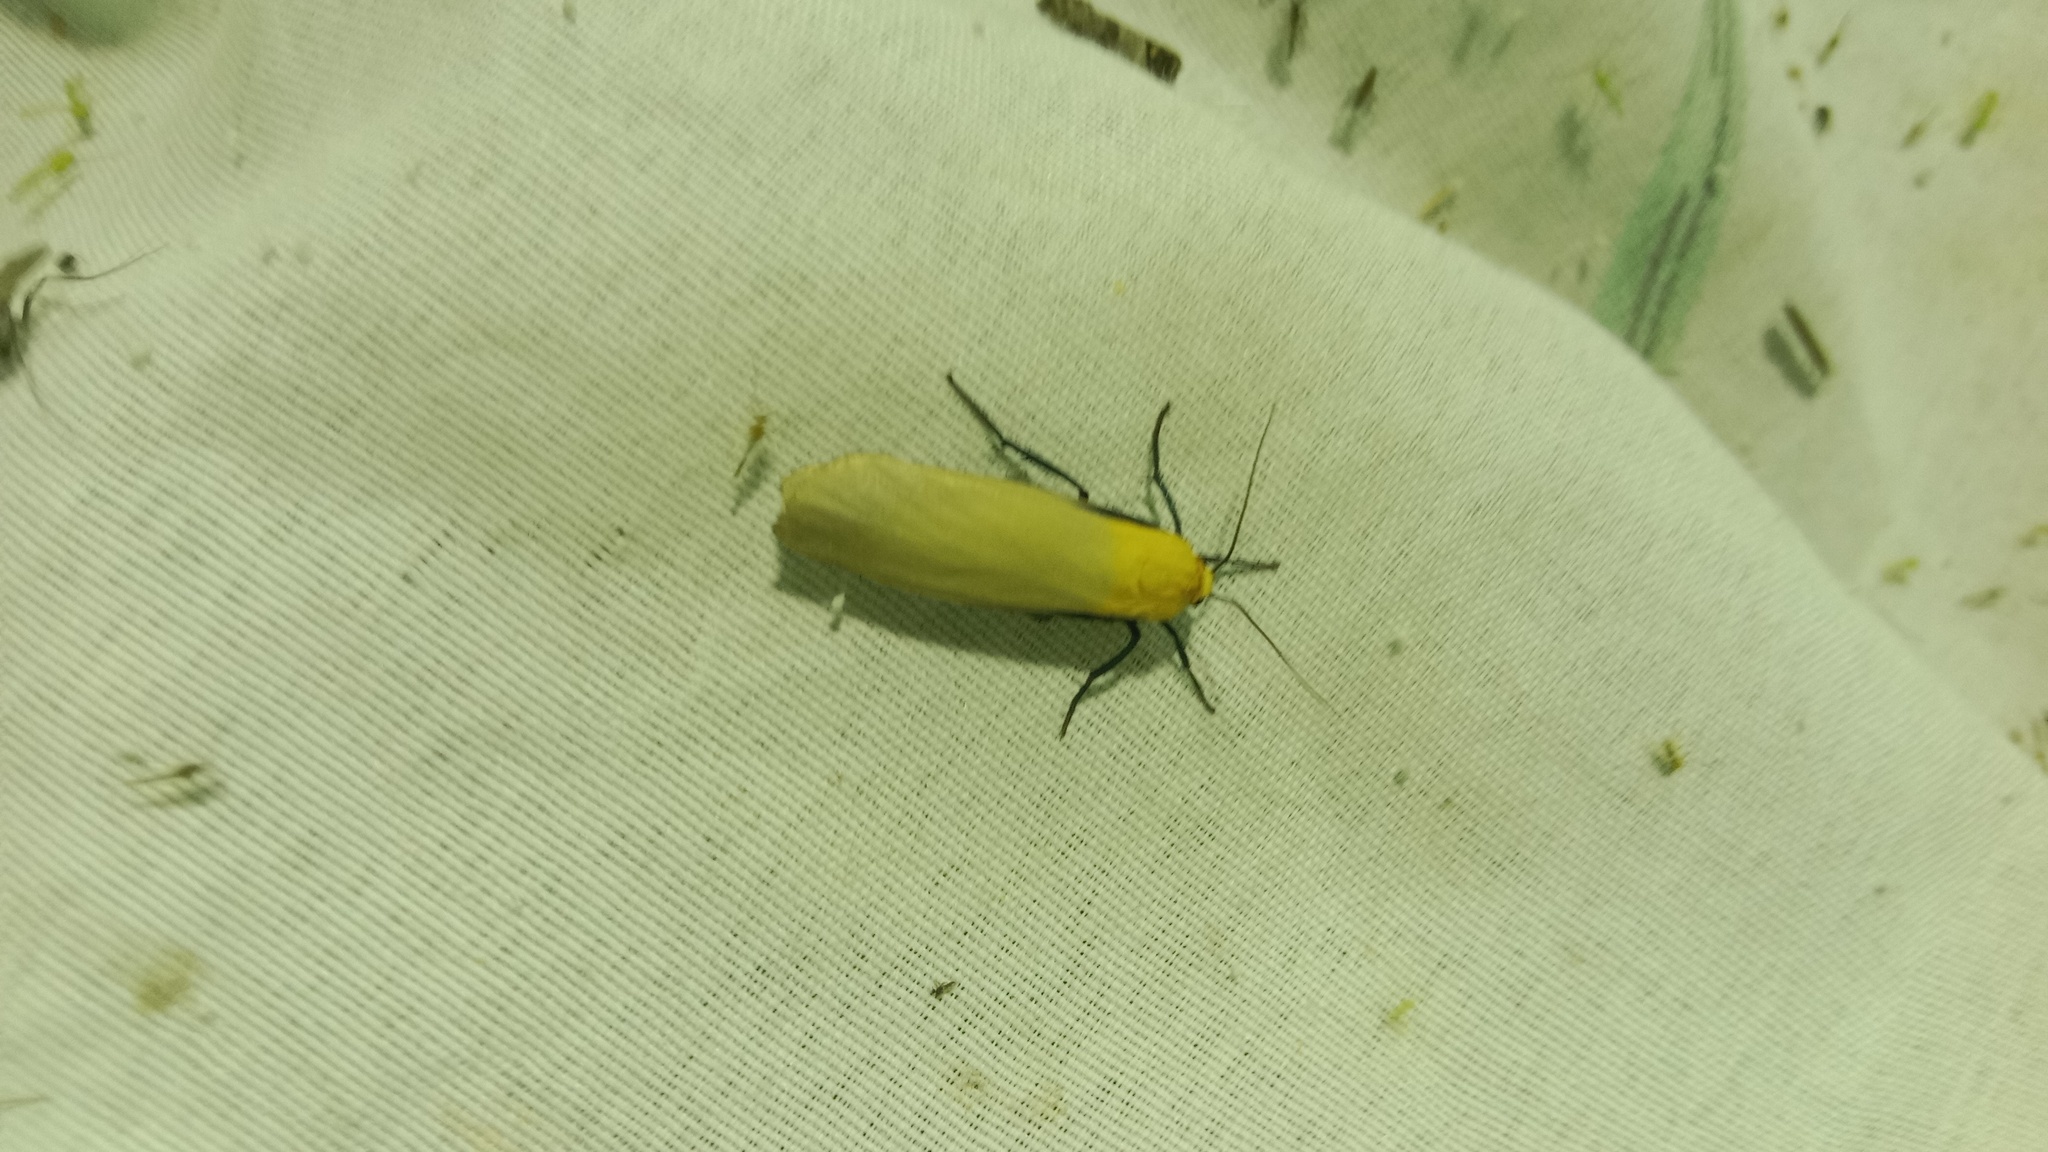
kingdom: Animalia
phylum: Arthropoda
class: Insecta
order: Lepidoptera
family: Erebidae
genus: Lithosia
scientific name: Lithosia quadra
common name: Four-spotted footman
